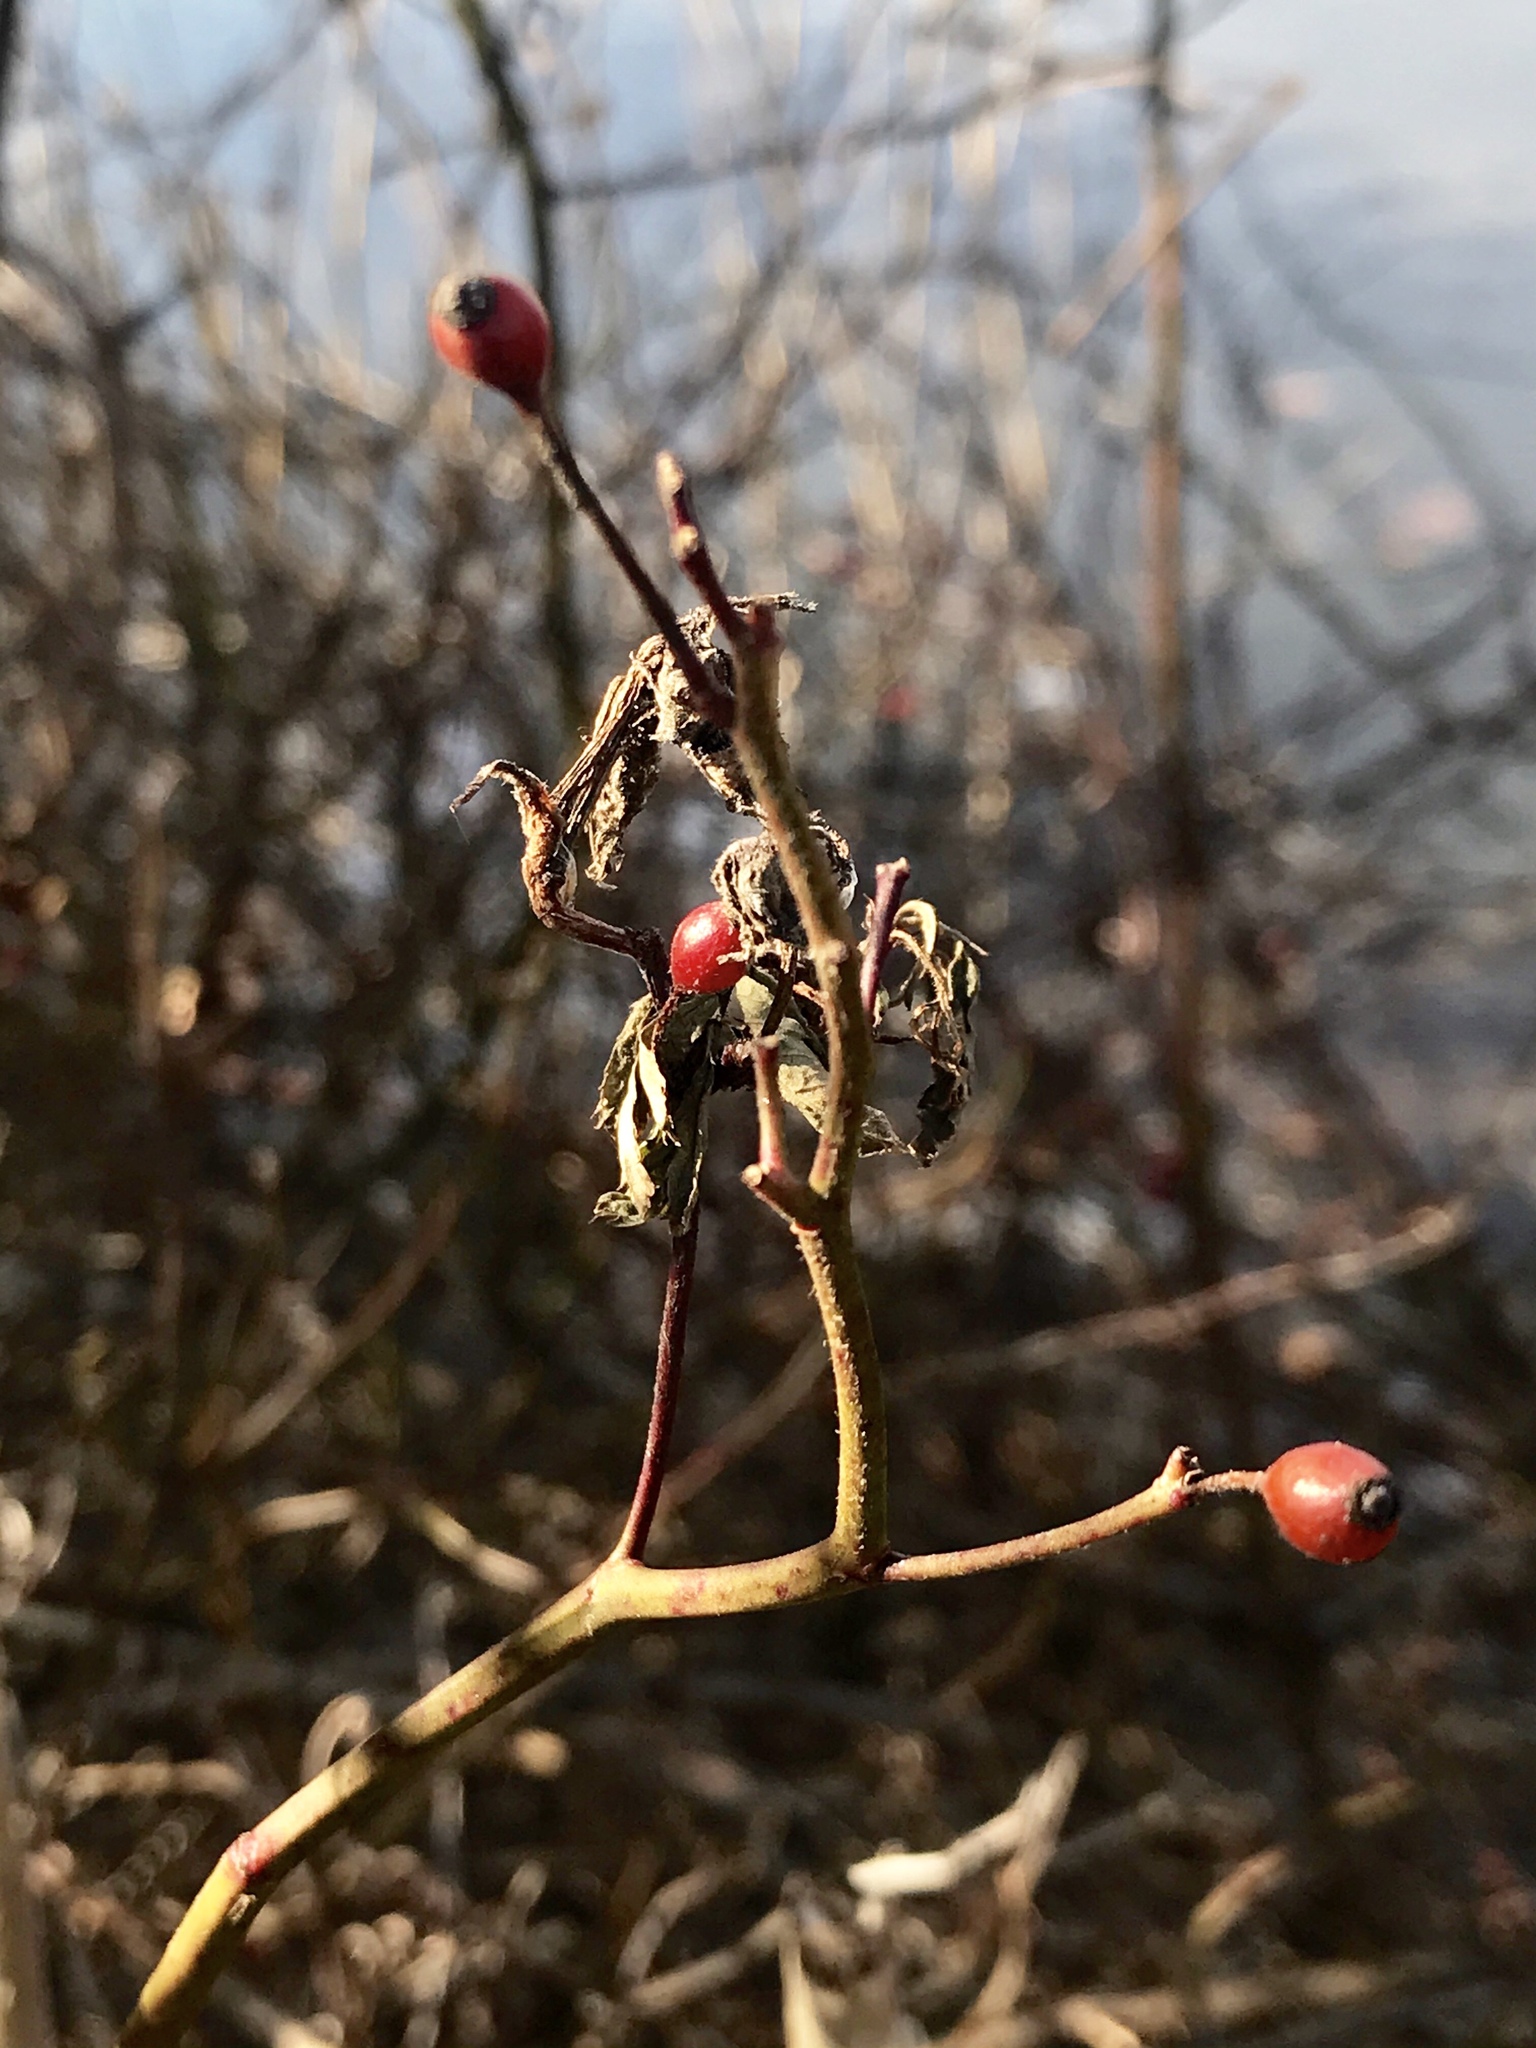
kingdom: Plantae
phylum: Tracheophyta
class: Magnoliopsida
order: Rosales
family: Rosaceae
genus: Rosa
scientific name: Rosa multiflora
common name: Multiflora rose
